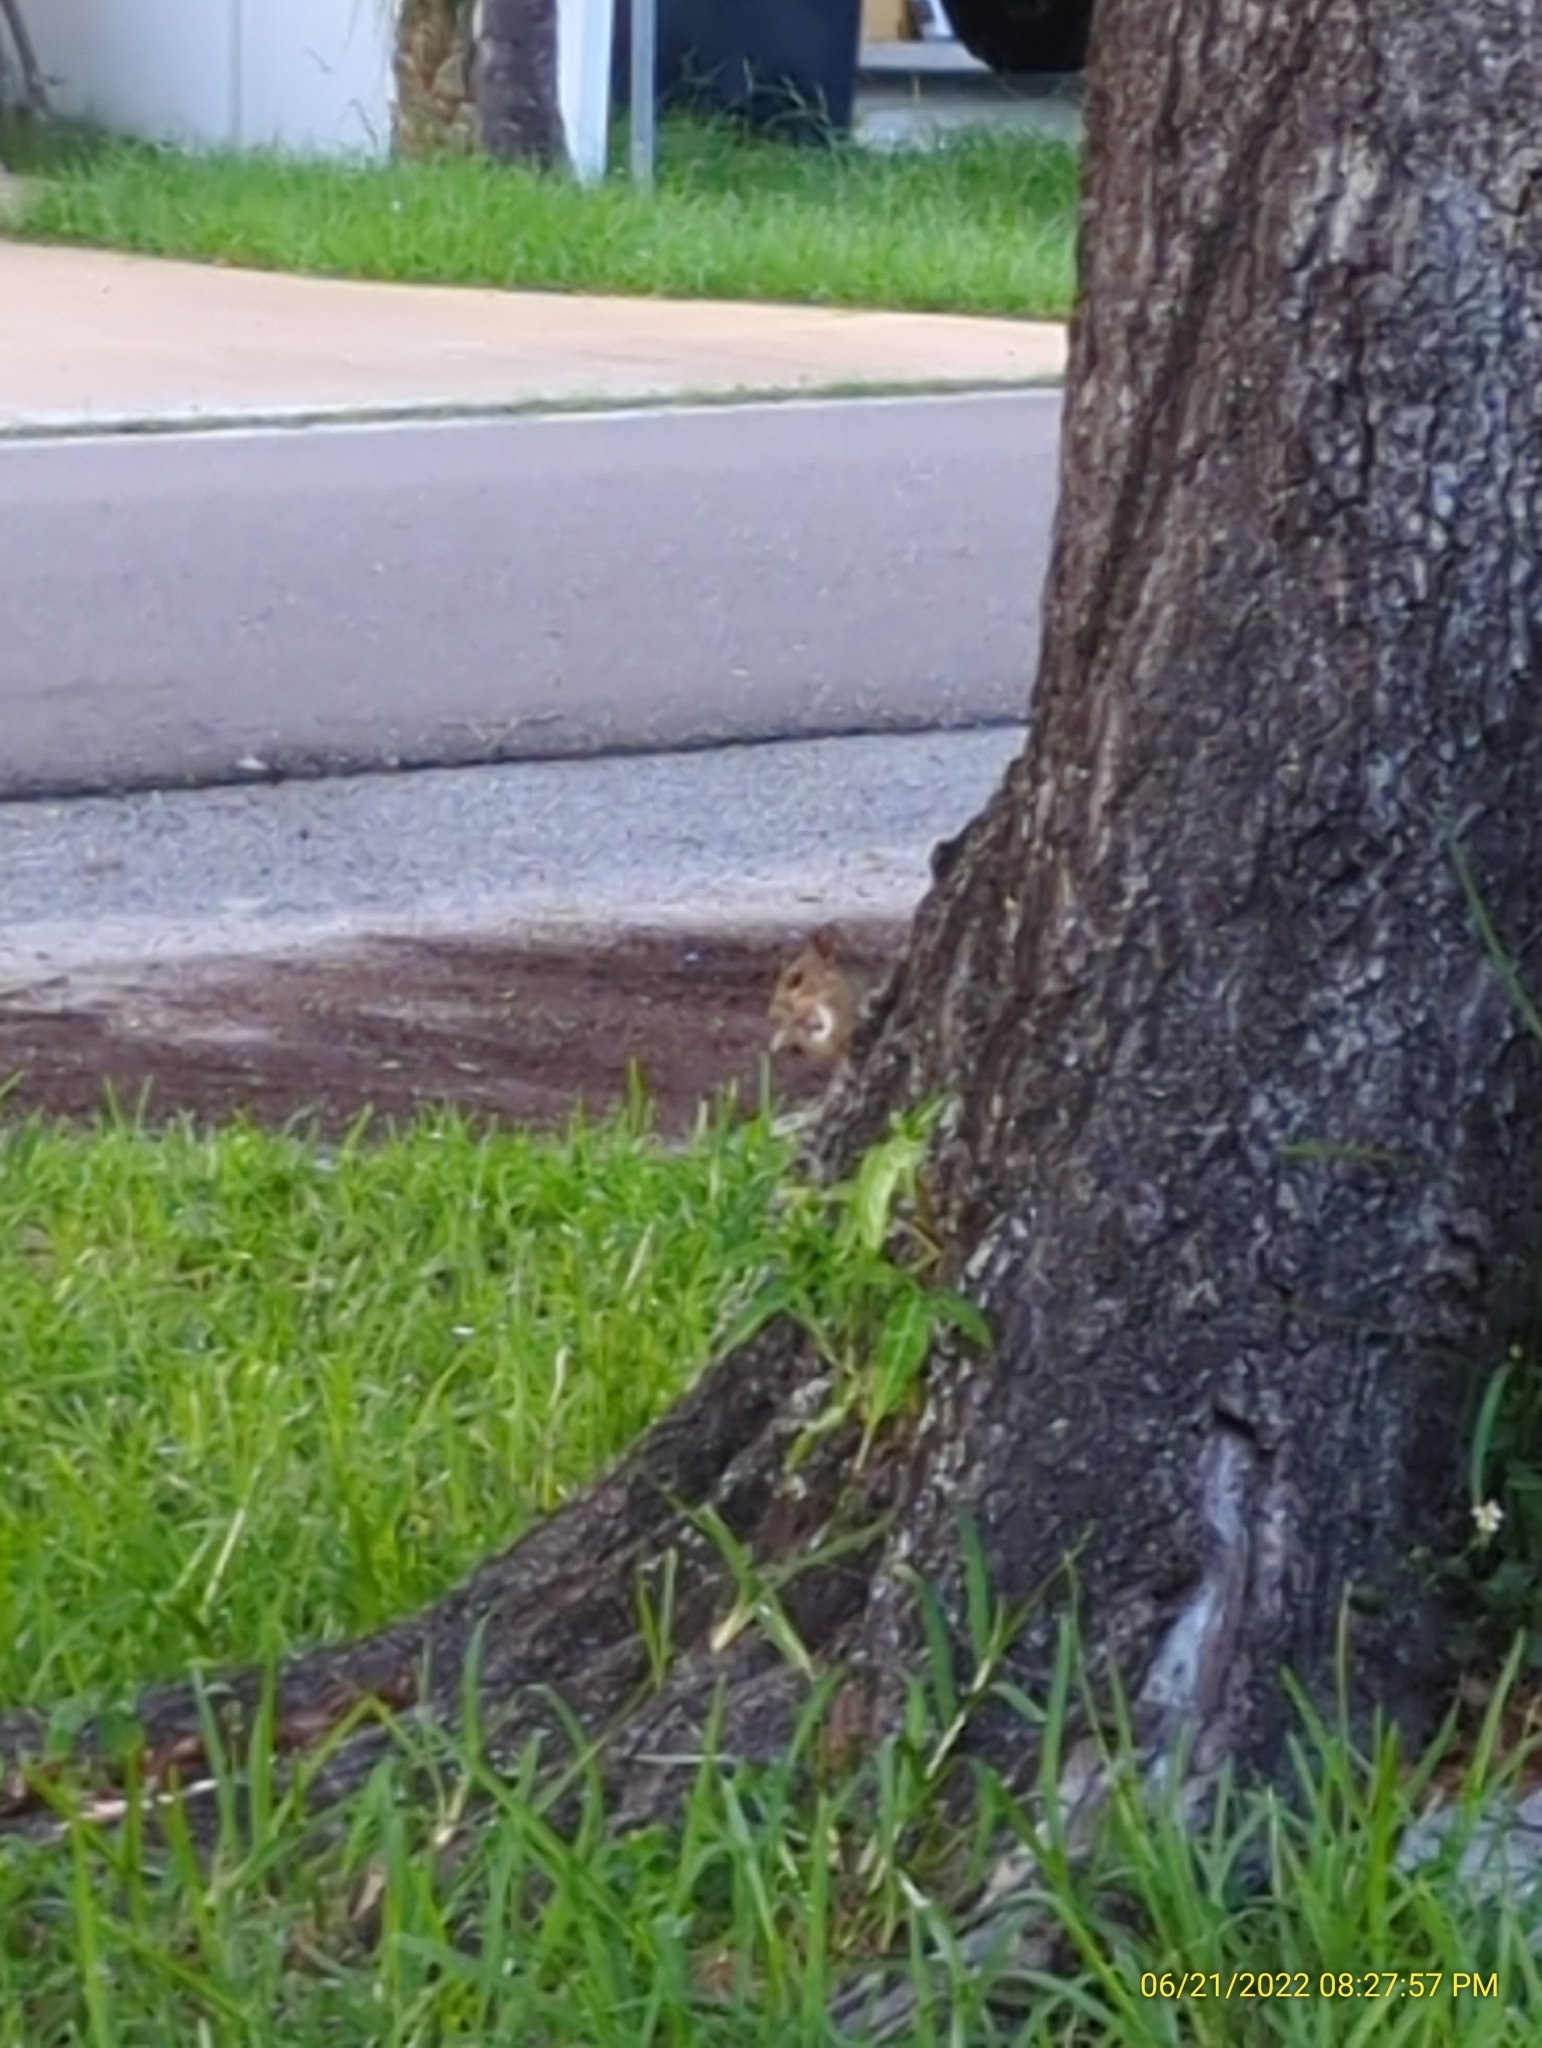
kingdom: Animalia
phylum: Chordata
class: Mammalia
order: Rodentia
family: Sciuridae
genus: Sciurus
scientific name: Sciurus carolinensis
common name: Eastern gray squirrel
